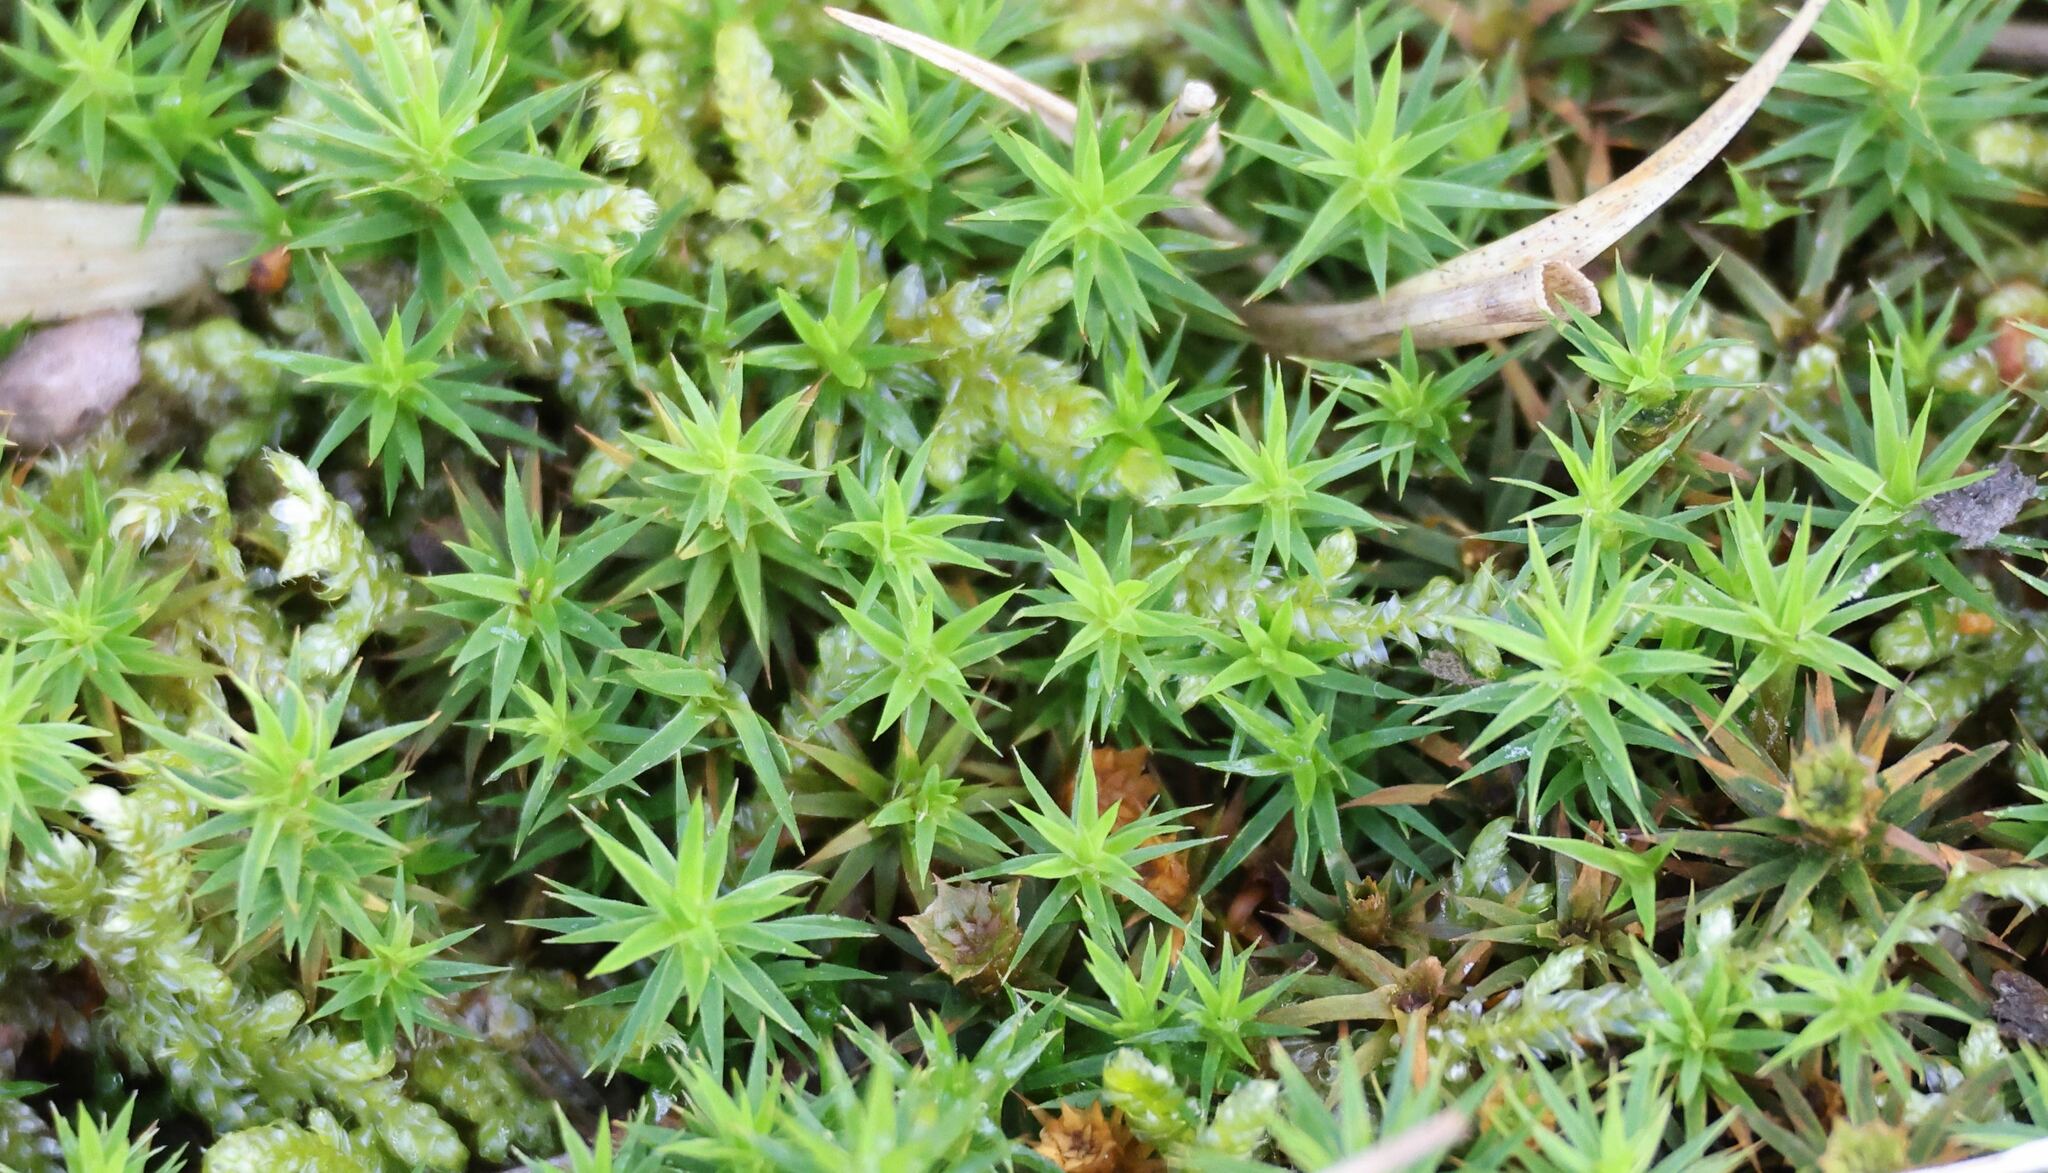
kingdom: Plantae
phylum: Bryophyta
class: Polytrichopsida
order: Polytrichales
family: Polytrichaceae
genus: Polytrichum
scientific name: Polytrichum formosum
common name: Bank haircap moss
